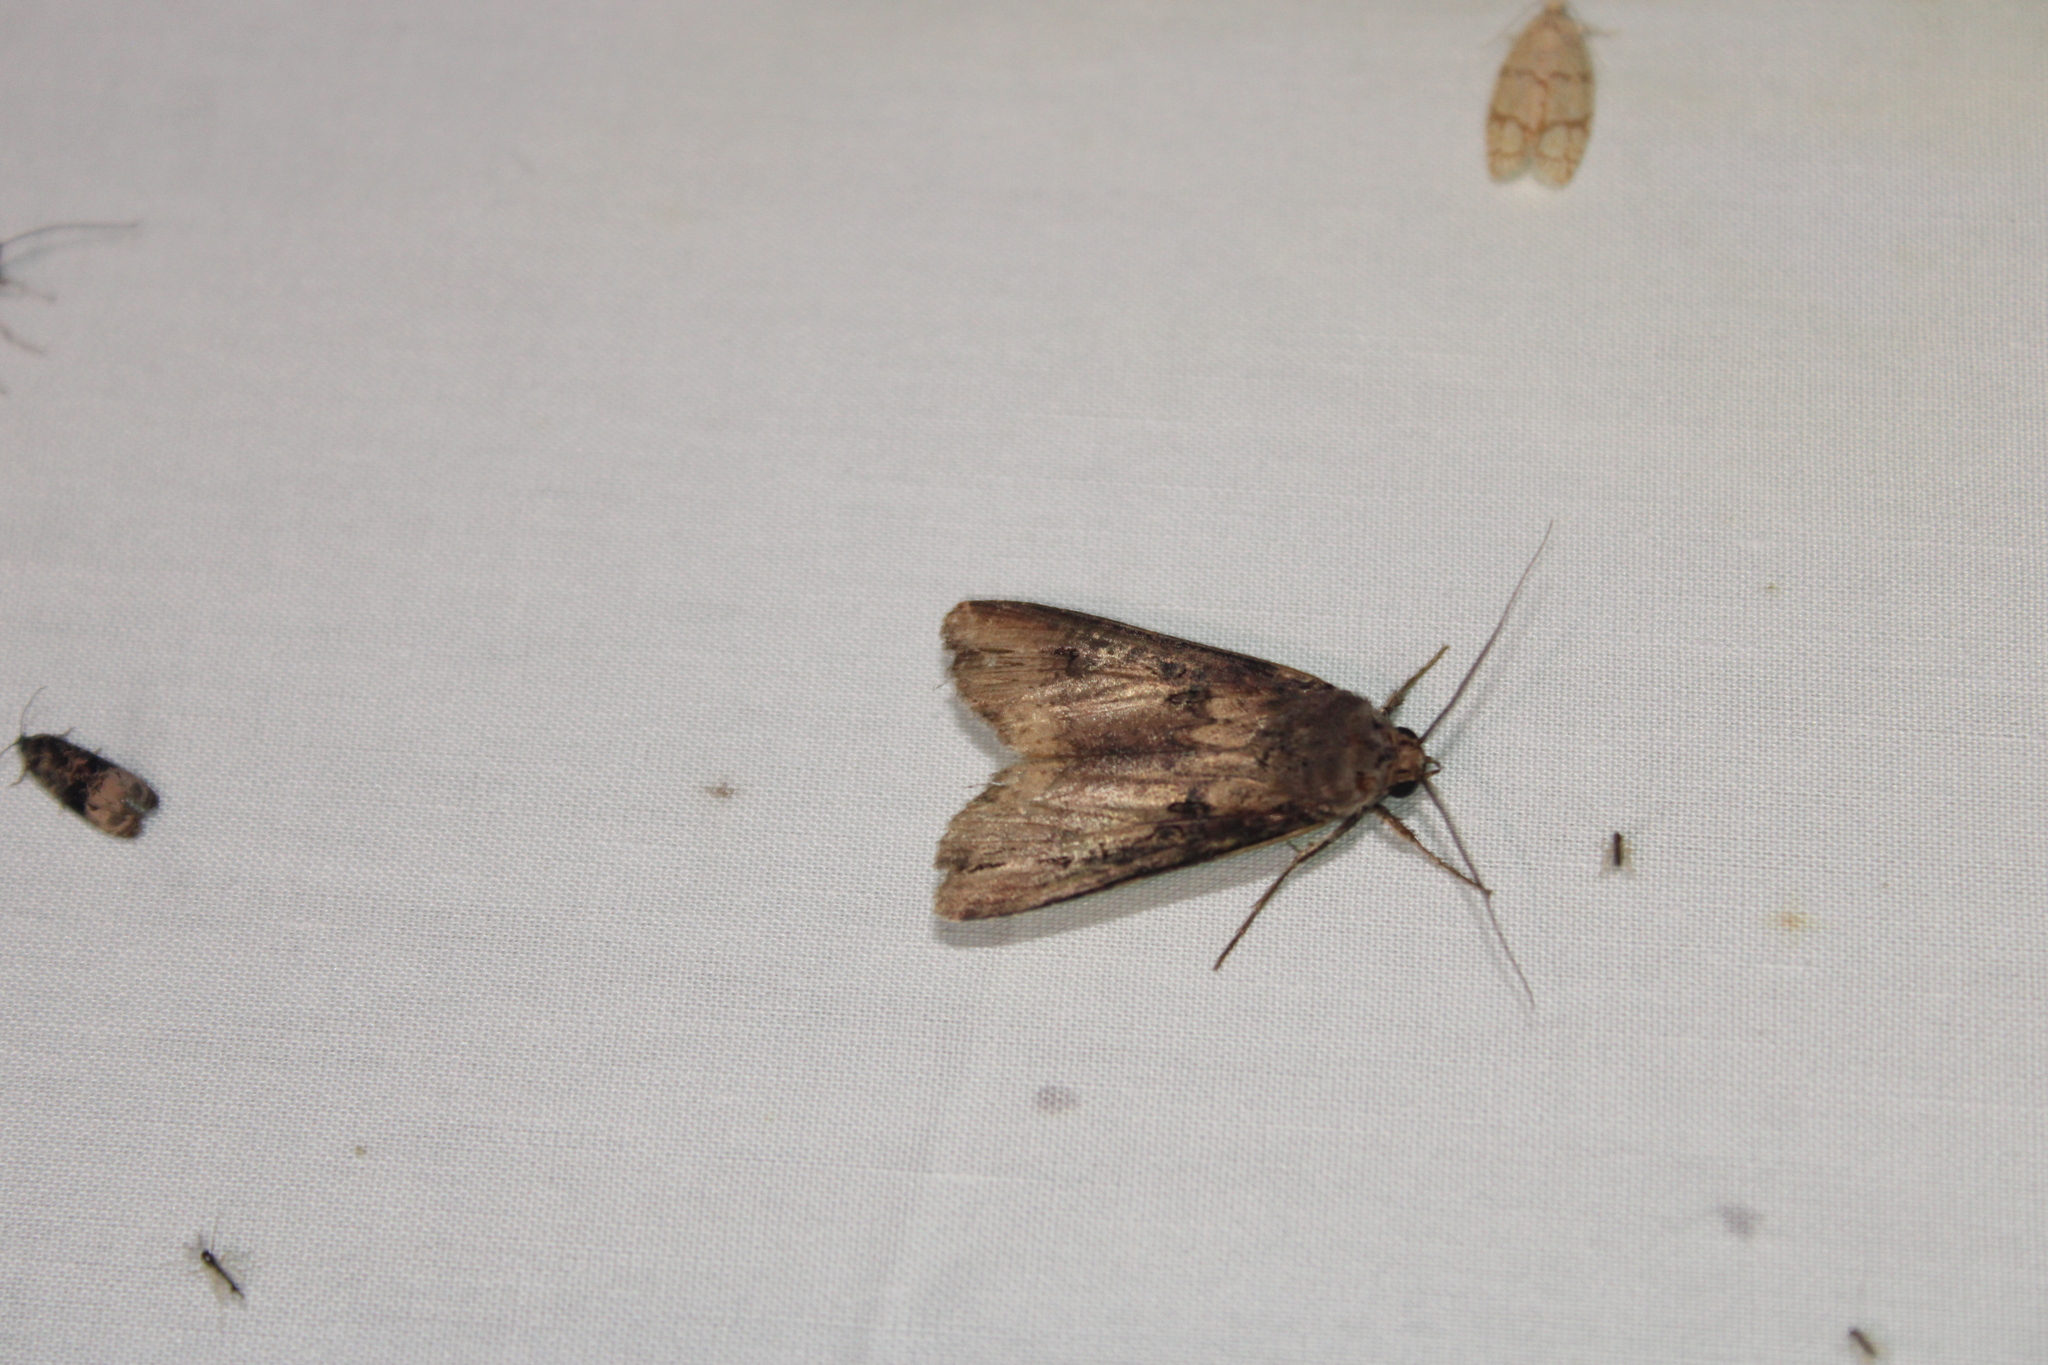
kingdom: Animalia
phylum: Arthropoda
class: Insecta
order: Lepidoptera
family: Noctuidae
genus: Agrotis
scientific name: Agrotis ipsilon
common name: Dark sword-grass
